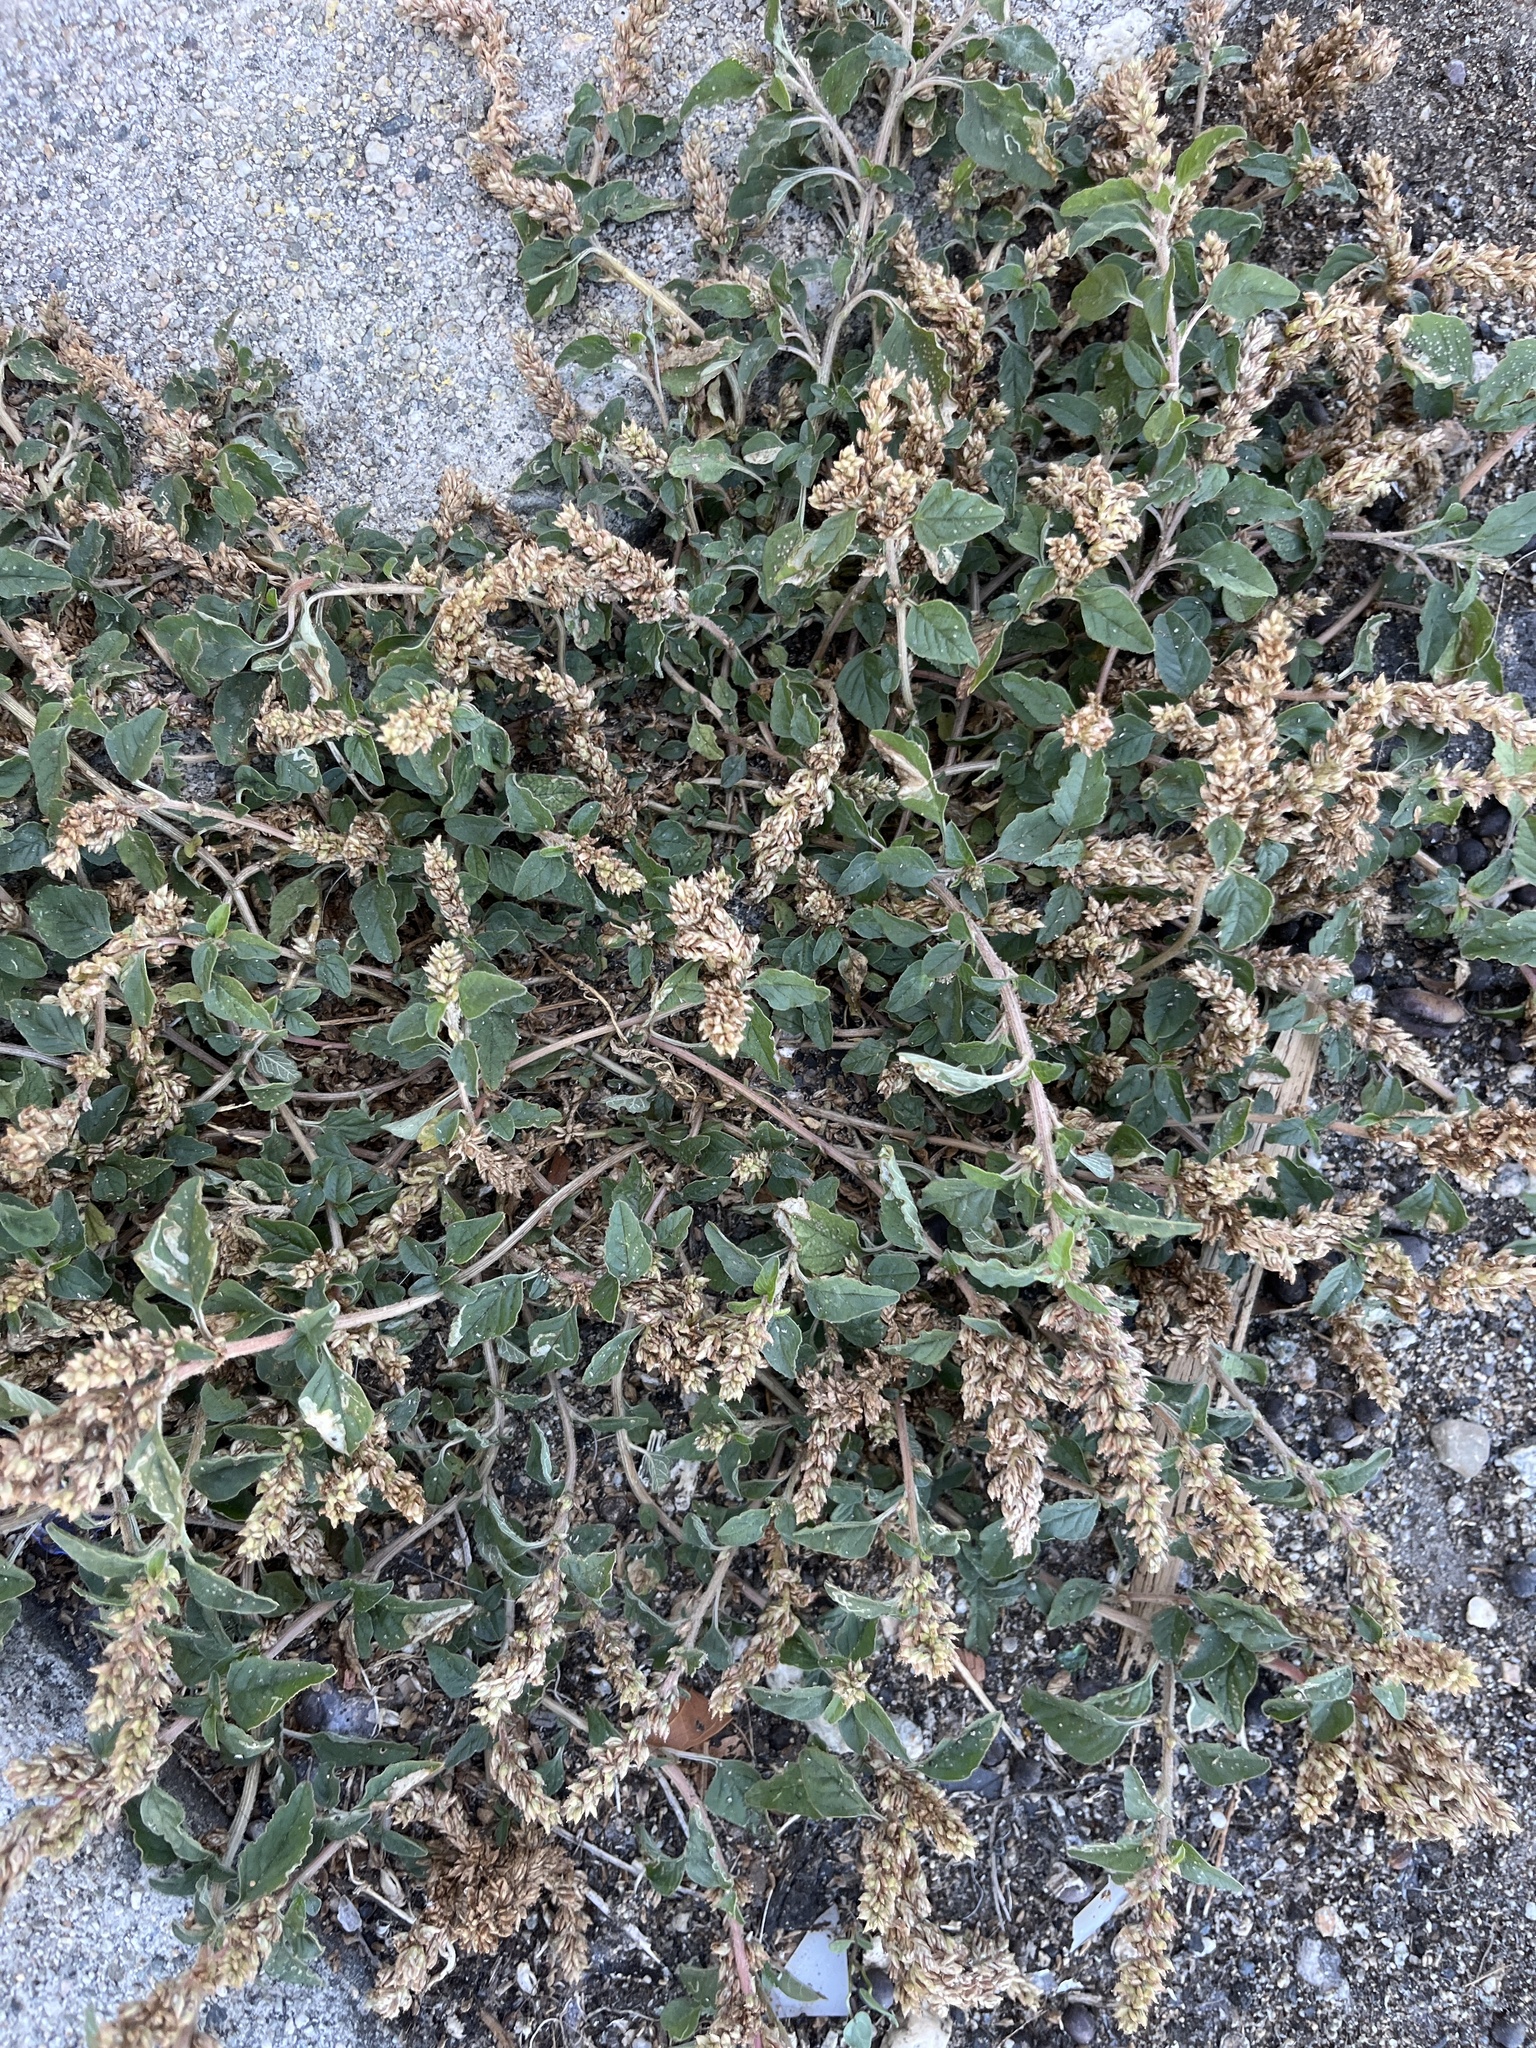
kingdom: Plantae
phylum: Tracheophyta
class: Magnoliopsida
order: Caryophyllales
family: Amaranthaceae
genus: Amaranthus
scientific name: Amaranthus deflexus
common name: Perennial pigweed
